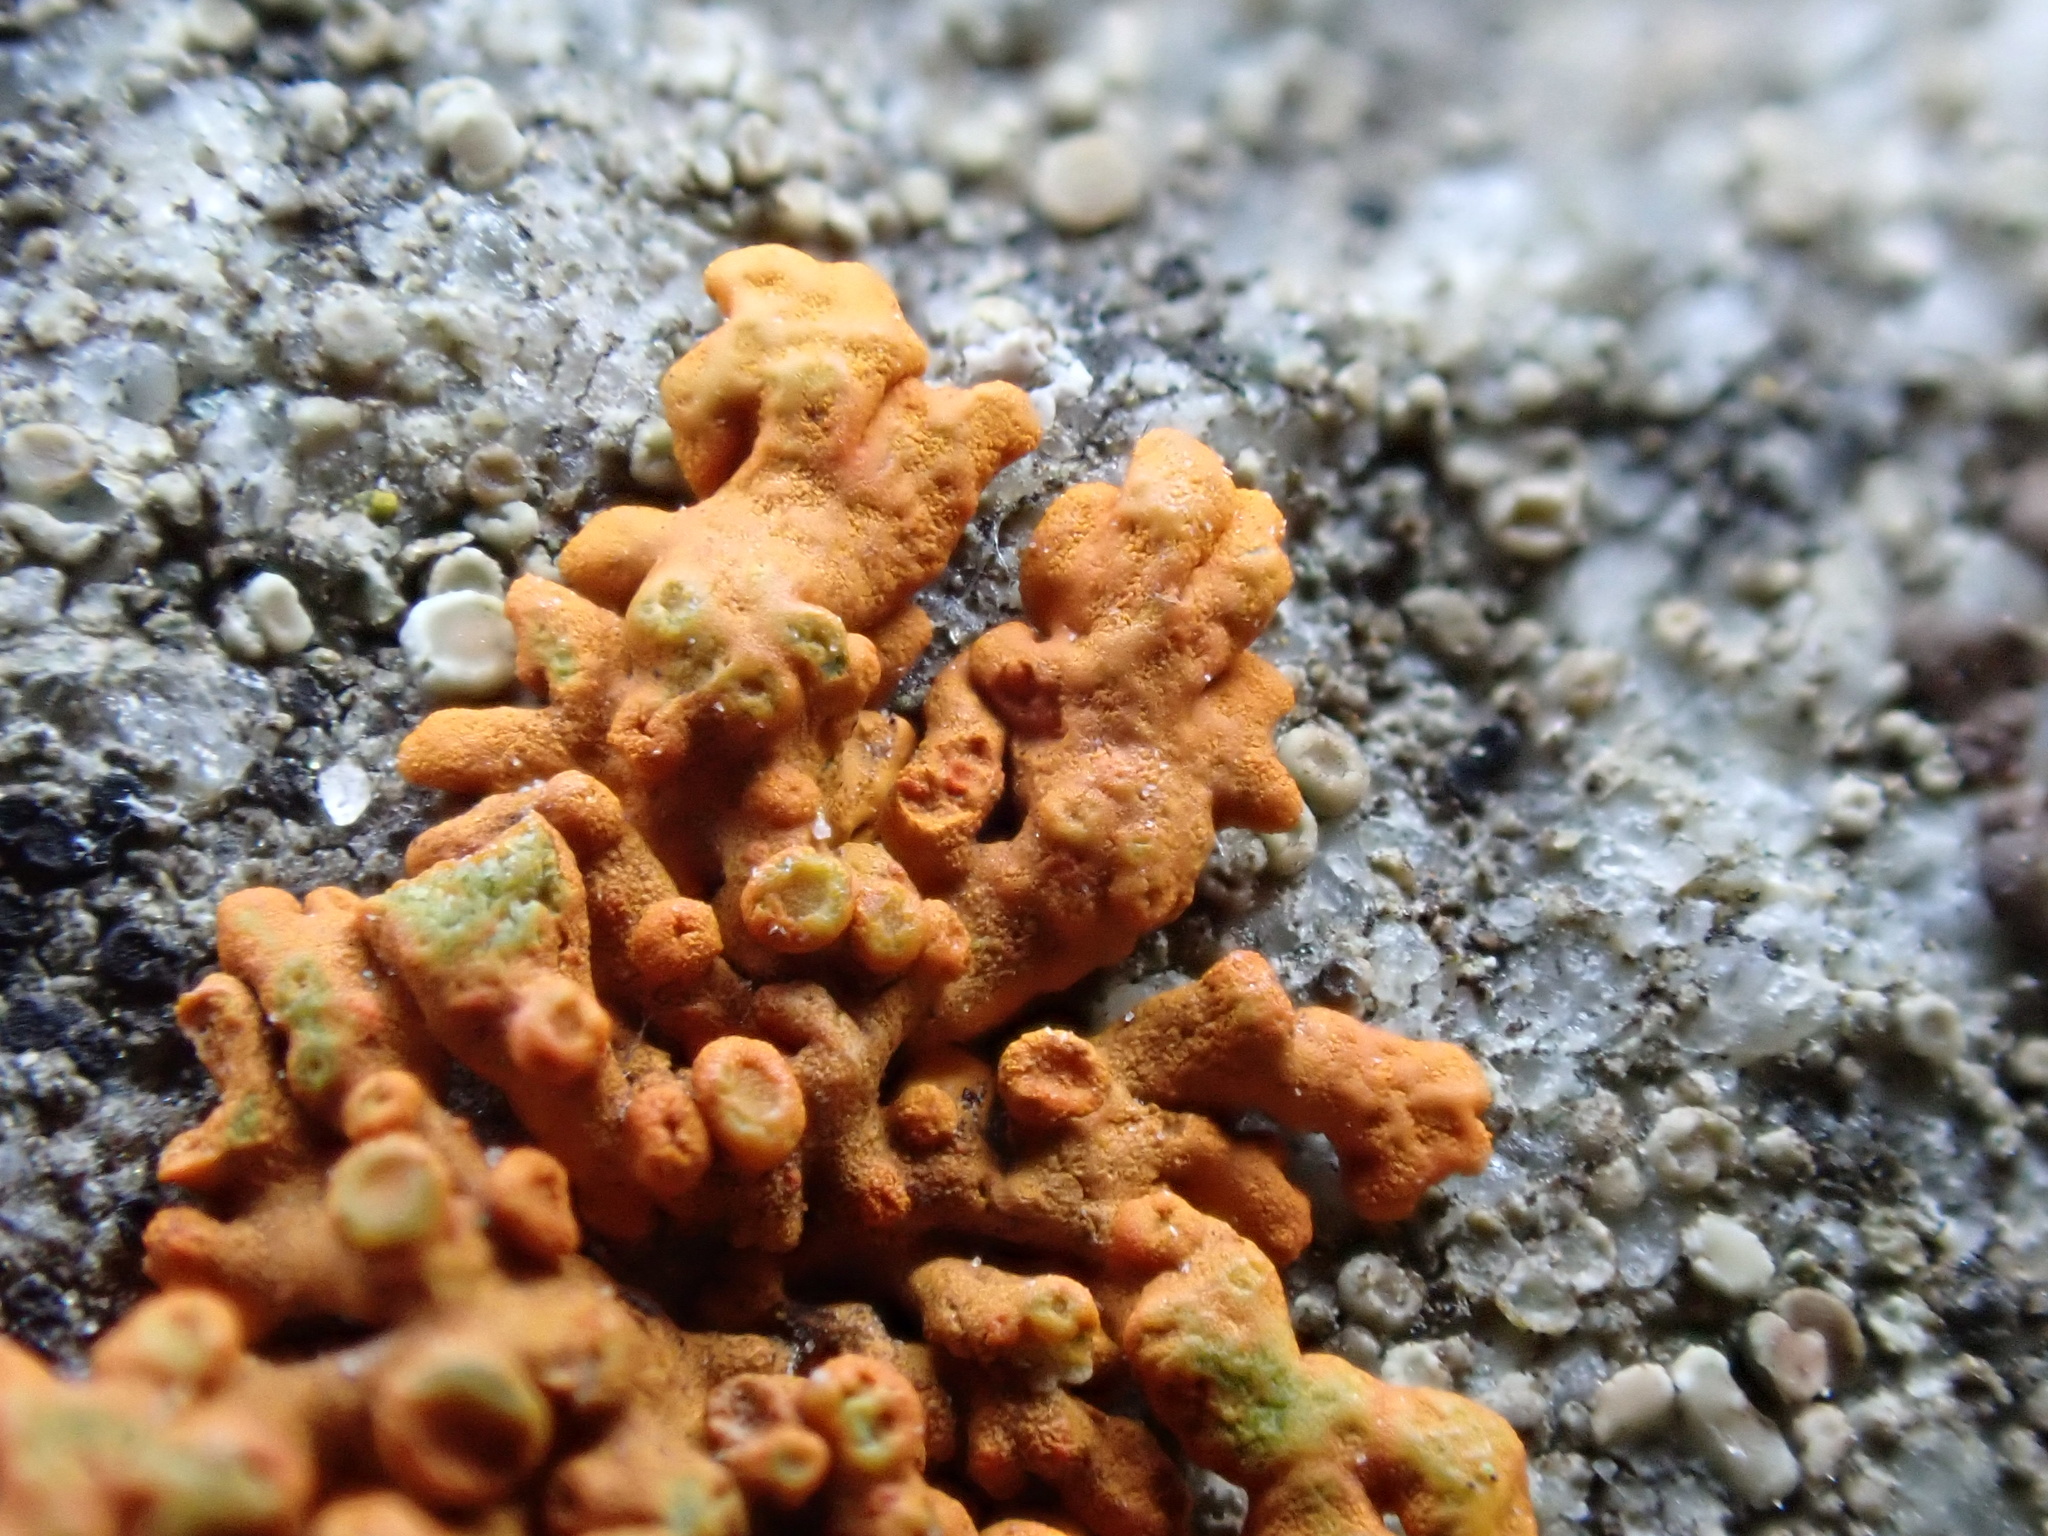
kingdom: Fungi
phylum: Ascomycota
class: Lecanoromycetes
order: Teloschistales
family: Teloschistaceae
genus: Xanthoria
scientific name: Xanthoria elegans
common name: Elegant sunburst lichen
